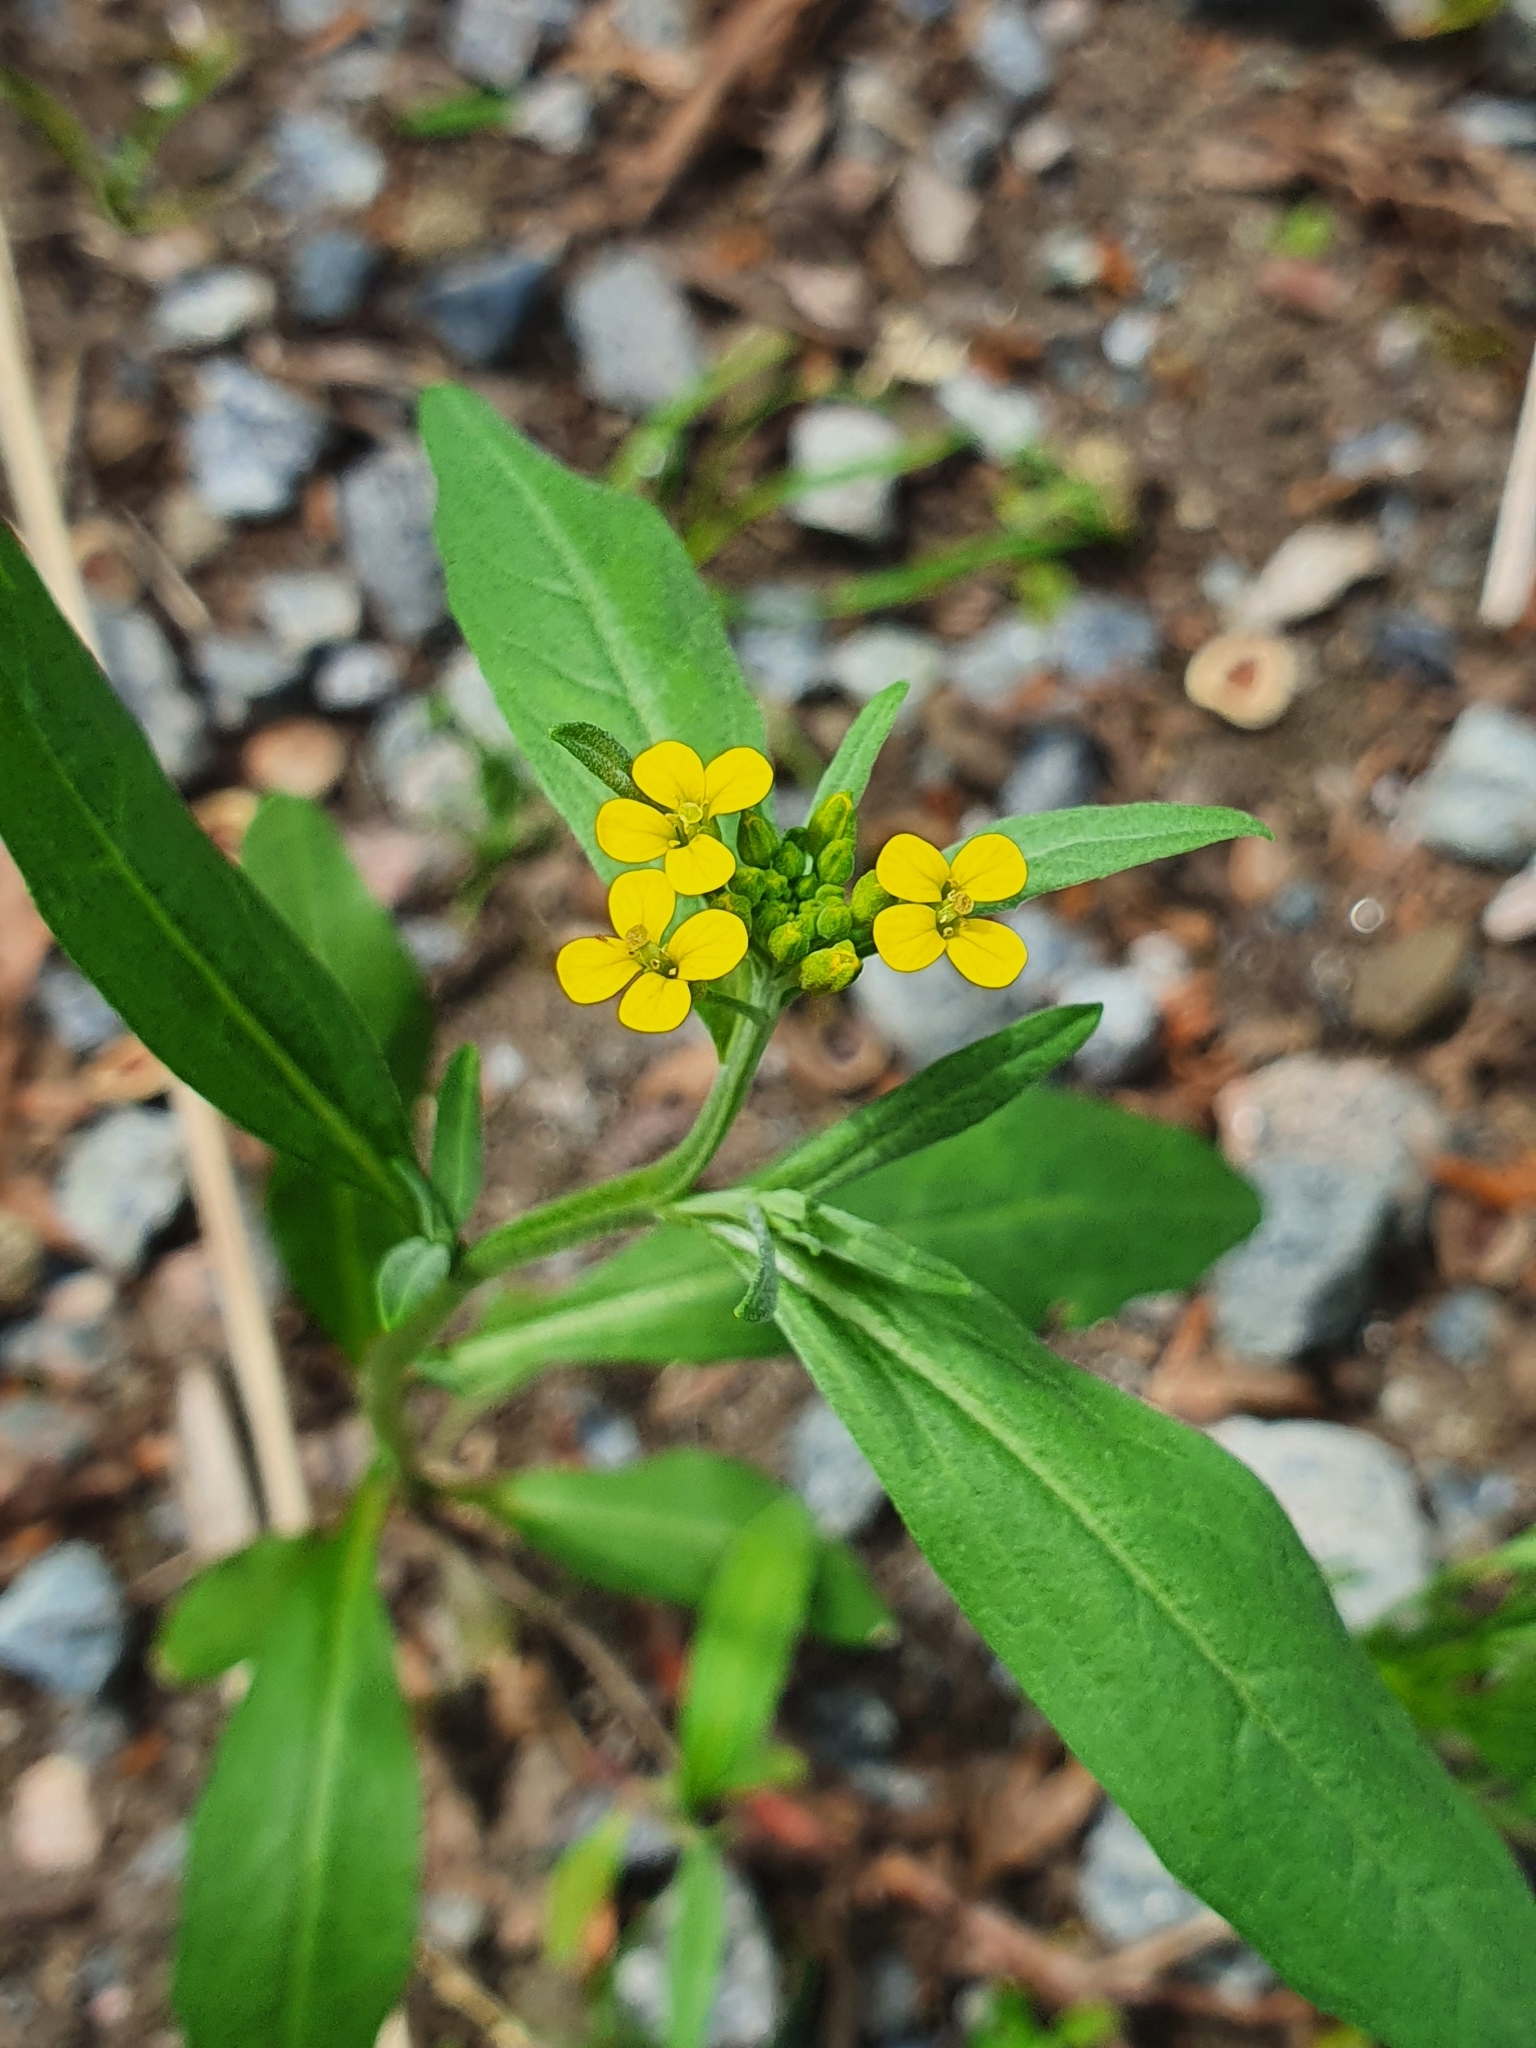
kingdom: Plantae
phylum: Tracheophyta
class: Magnoliopsida
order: Brassicales
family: Brassicaceae
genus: Erysimum
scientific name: Erysimum cheiranthoides
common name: Treacle mustard
